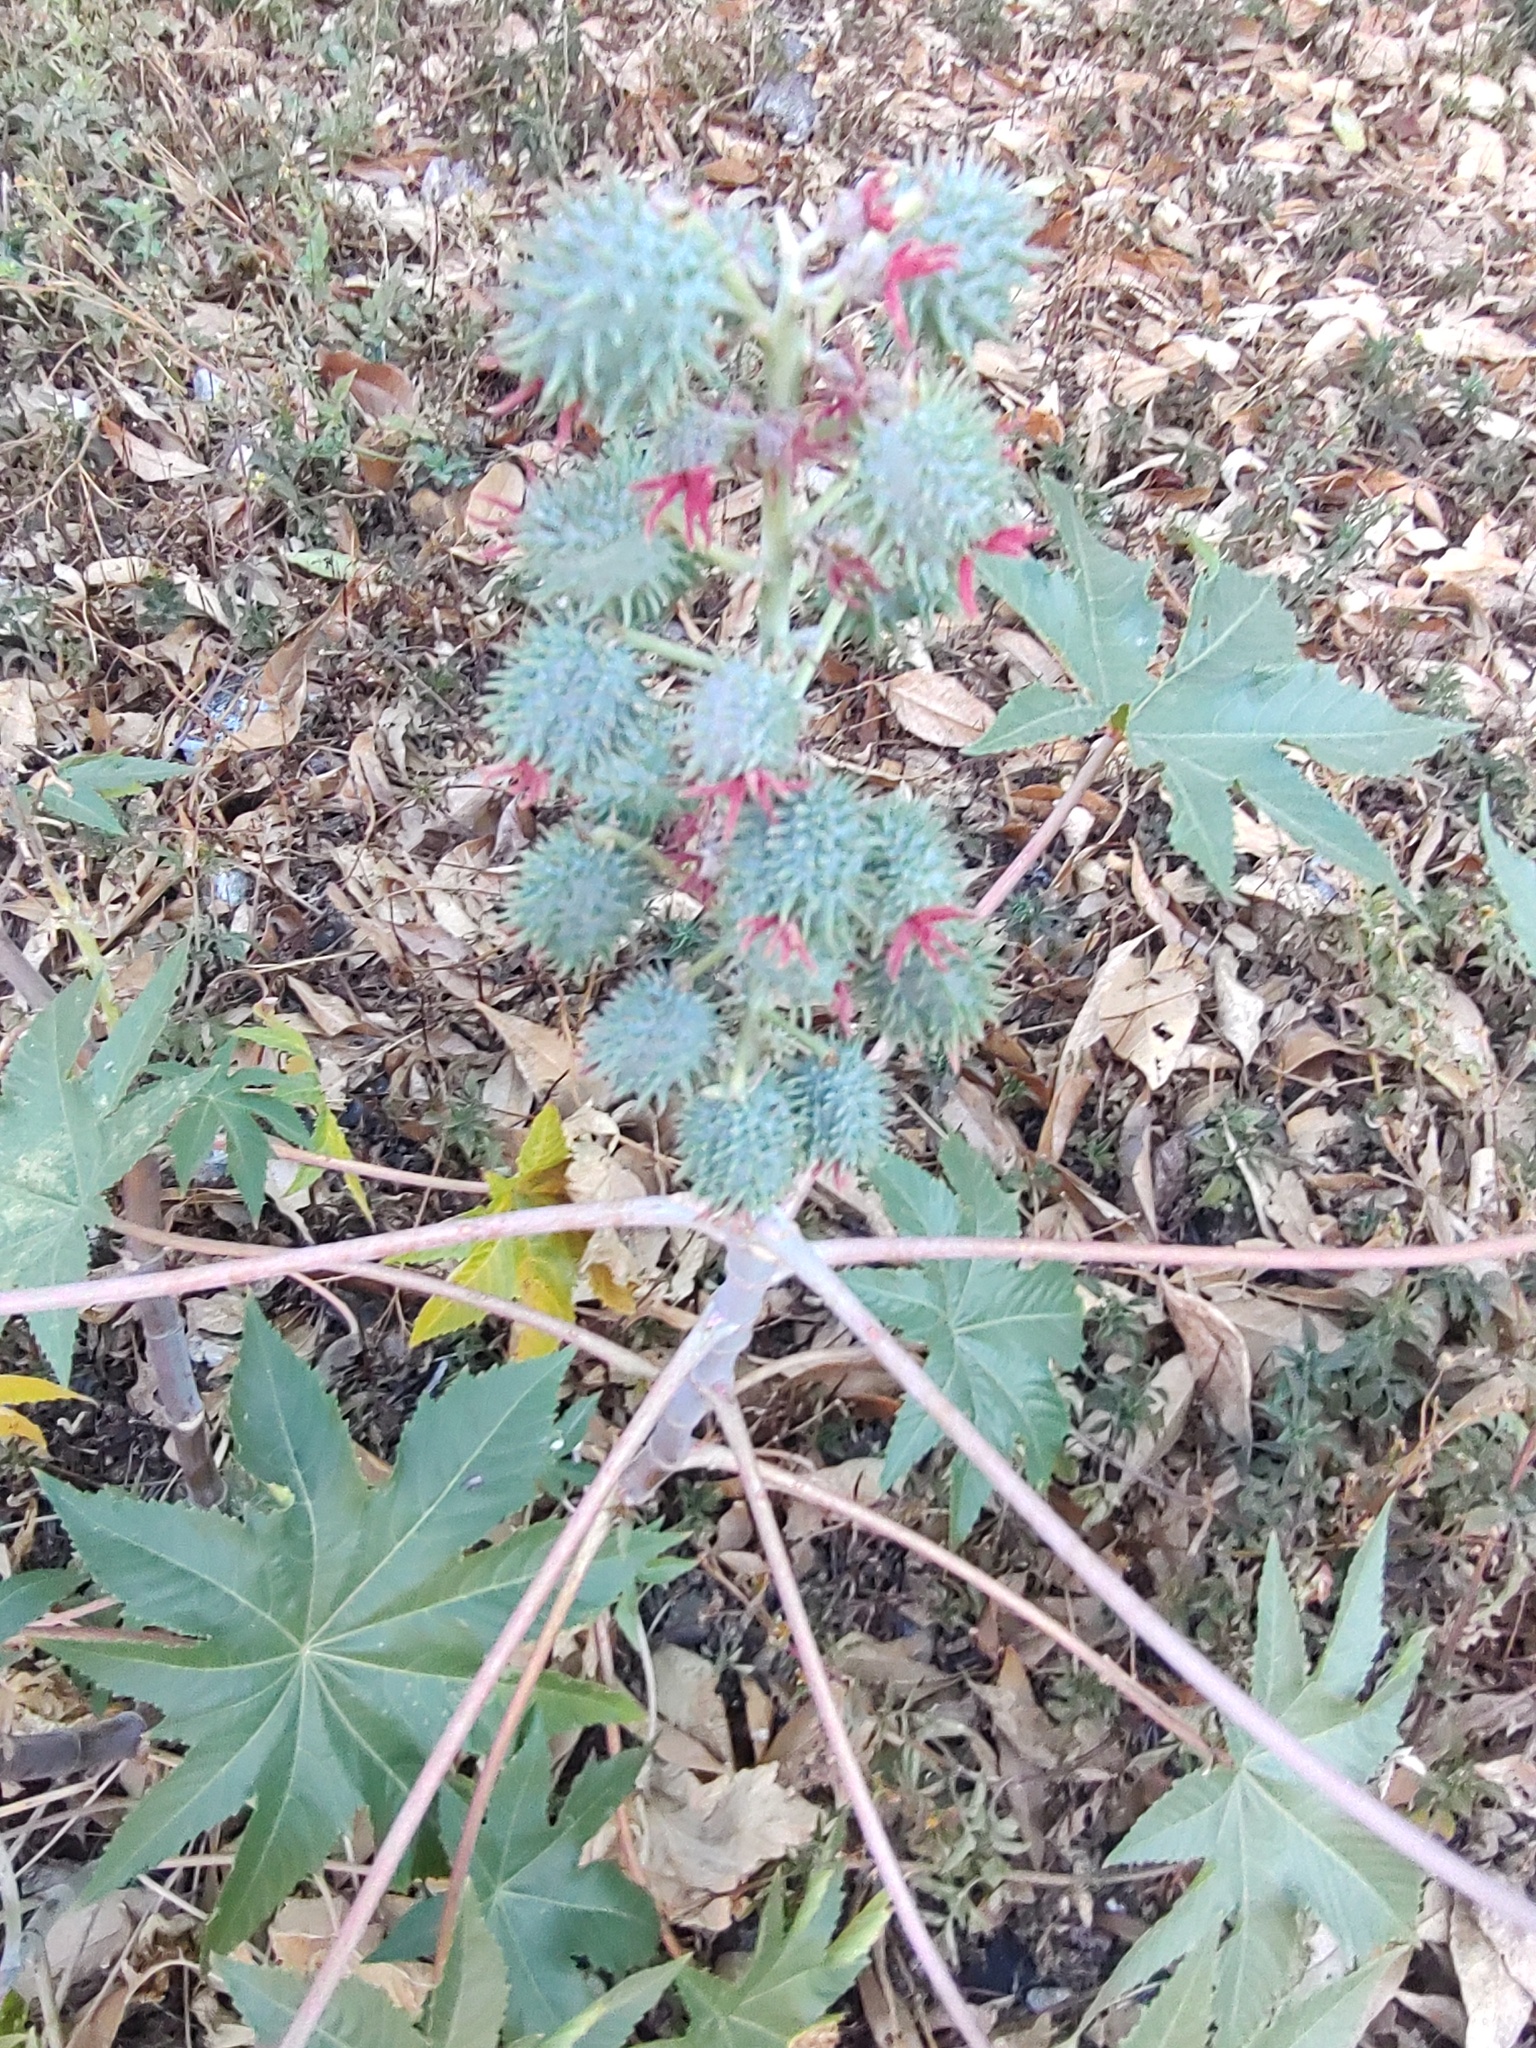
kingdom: Plantae
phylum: Tracheophyta
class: Magnoliopsida
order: Malpighiales
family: Euphorbiaceae
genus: Ricinus
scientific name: Ricinus communis
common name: Castor-oil-plant
